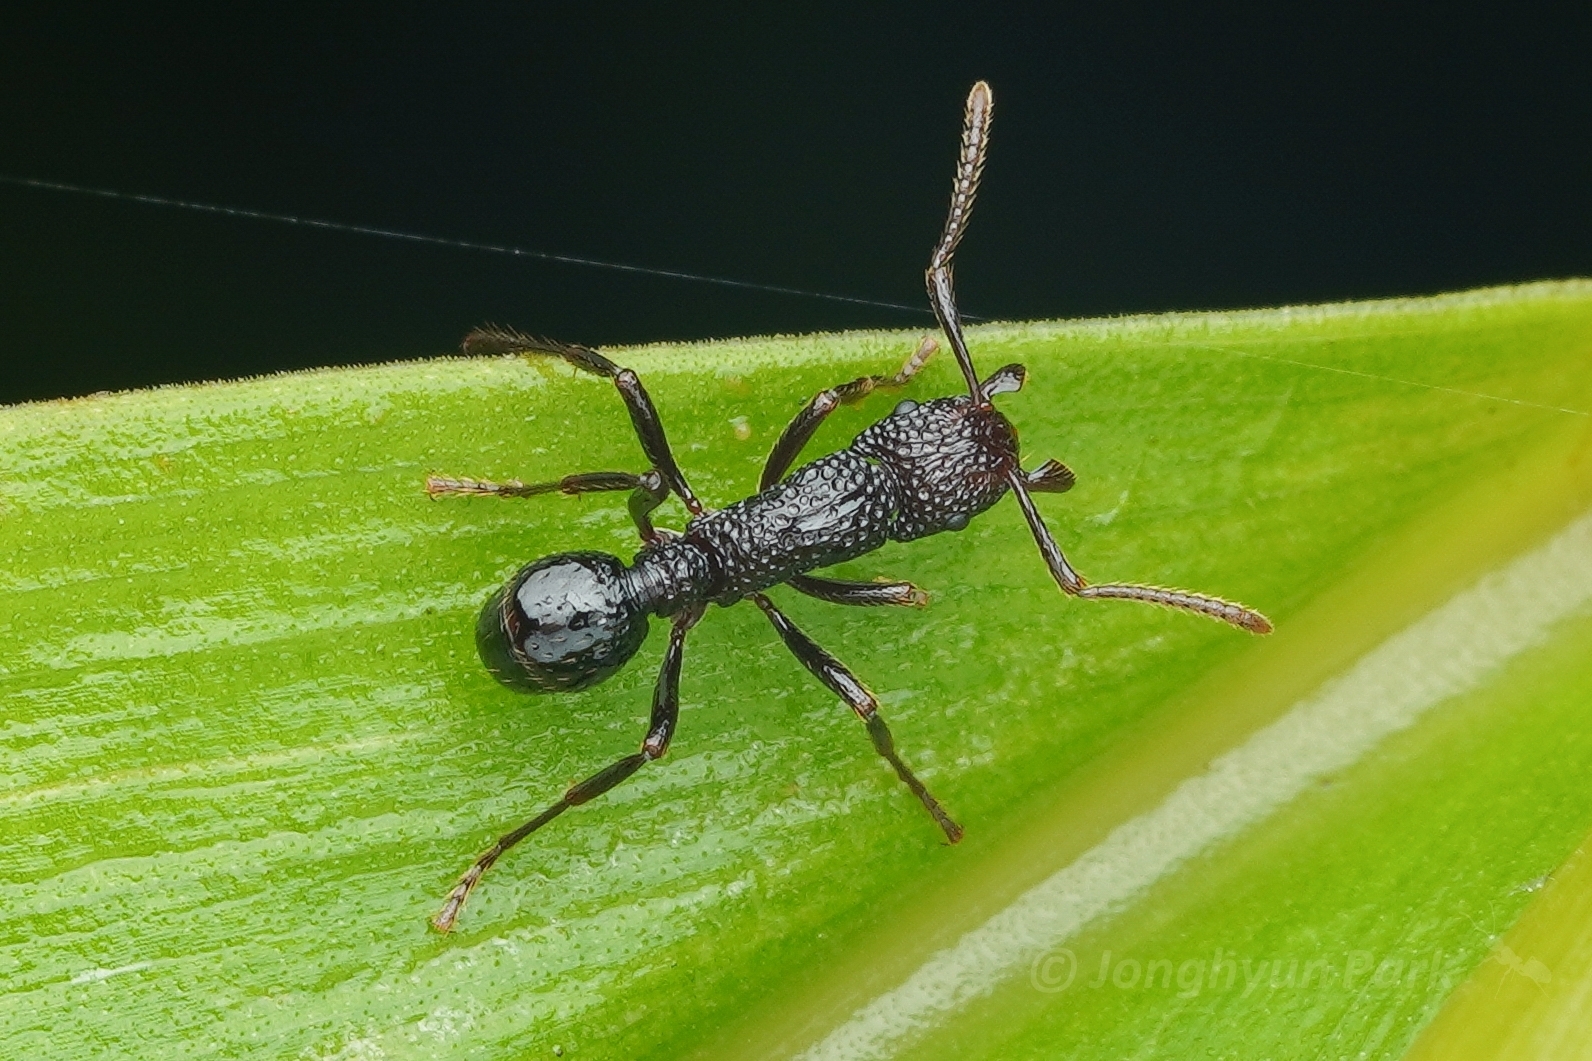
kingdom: Animalia
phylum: Arthropoda
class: Insecta
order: Hymenoptera
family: Formicidae
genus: Stictoponera
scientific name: Stictoponera
